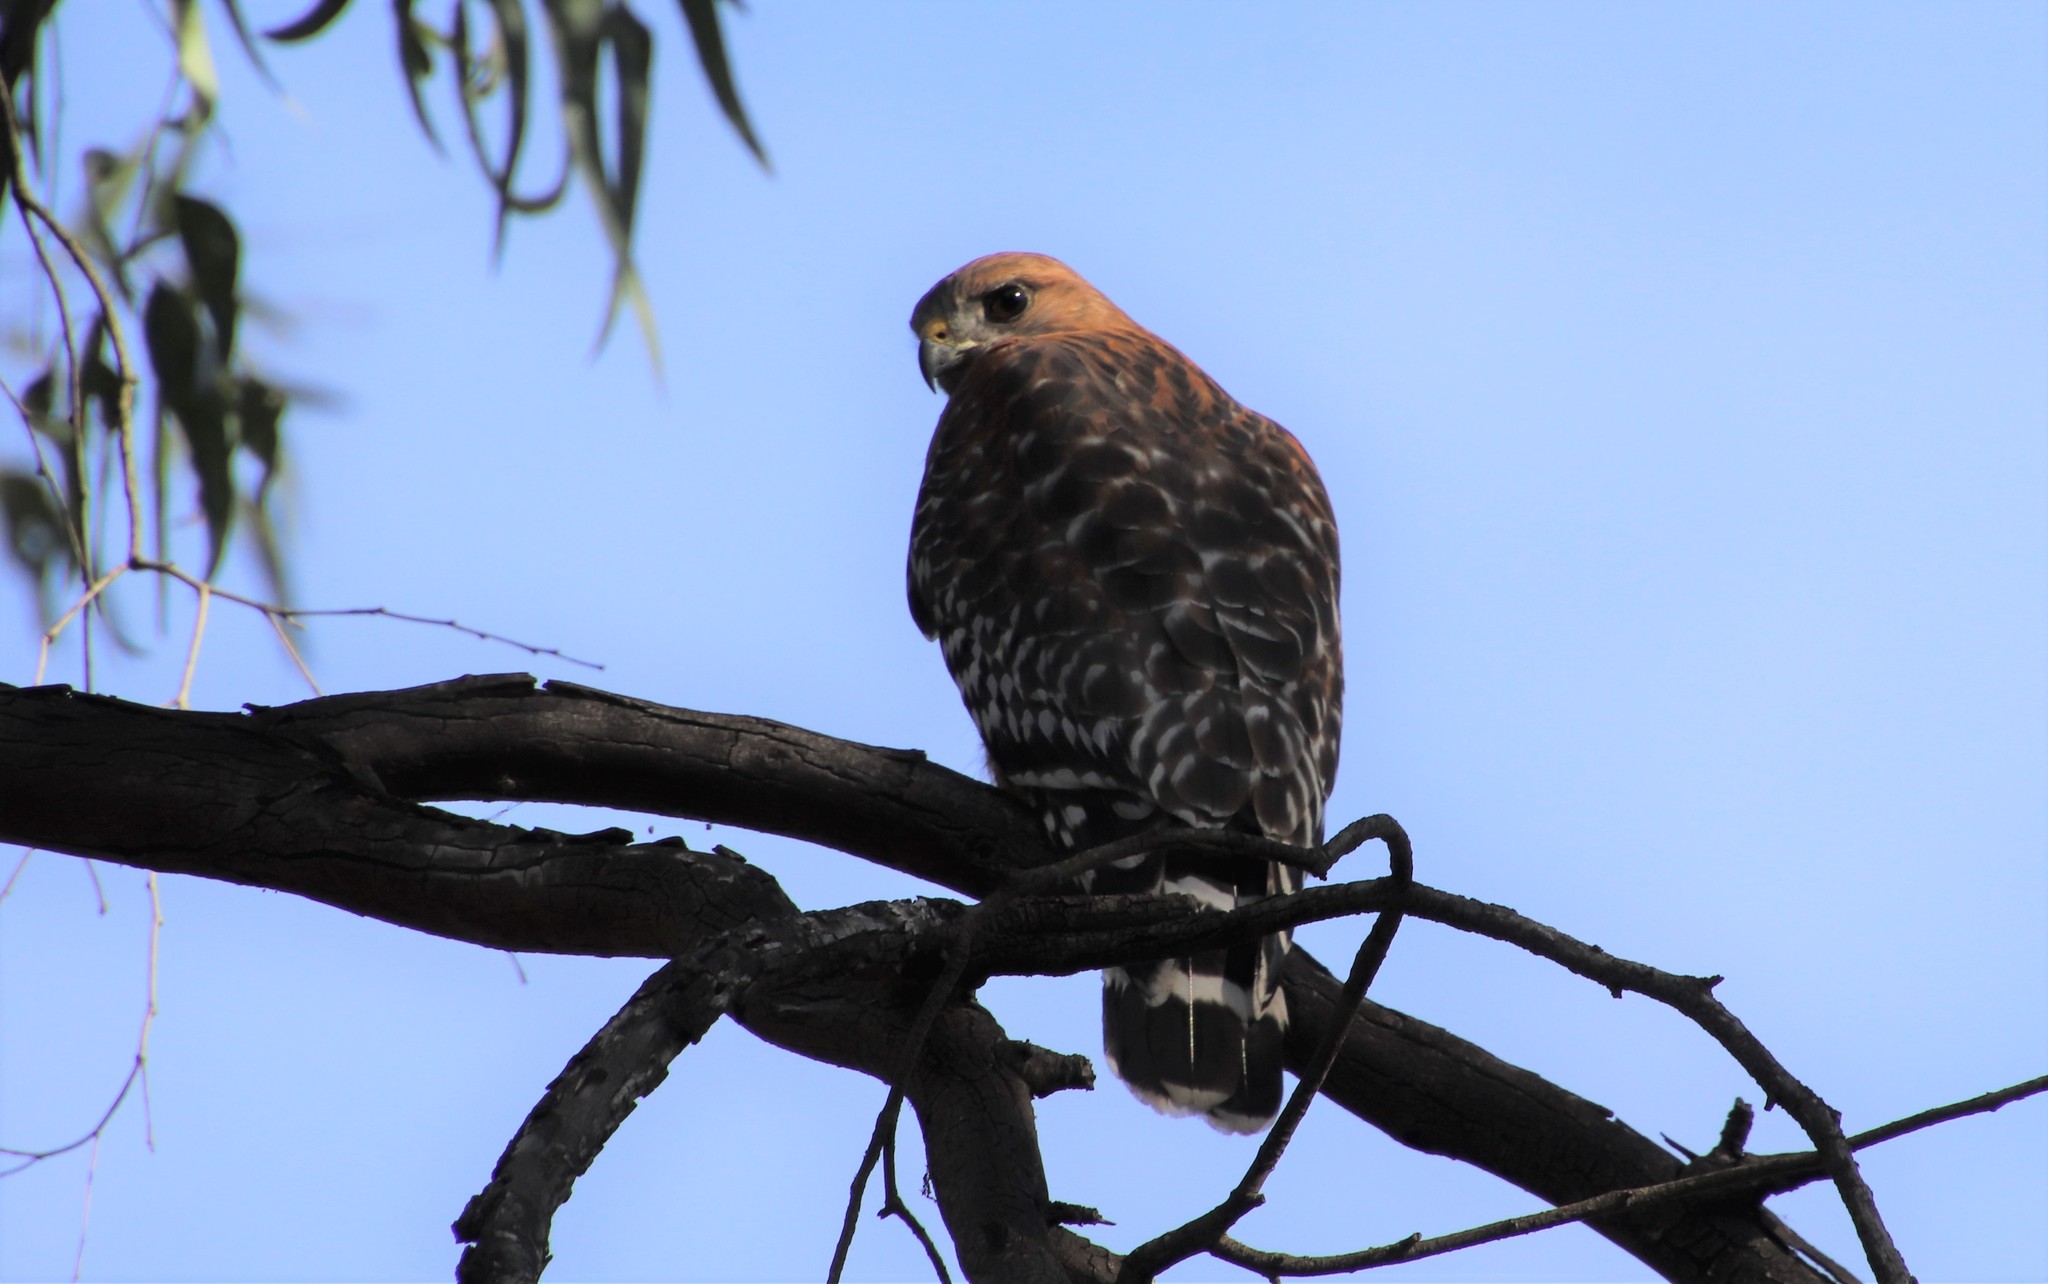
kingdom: Animalia
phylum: Chordata
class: Aves
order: Accipitriformes
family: Accipitridae
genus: Buteo
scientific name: Buteo lineatus
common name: Red-shouldered hawk
